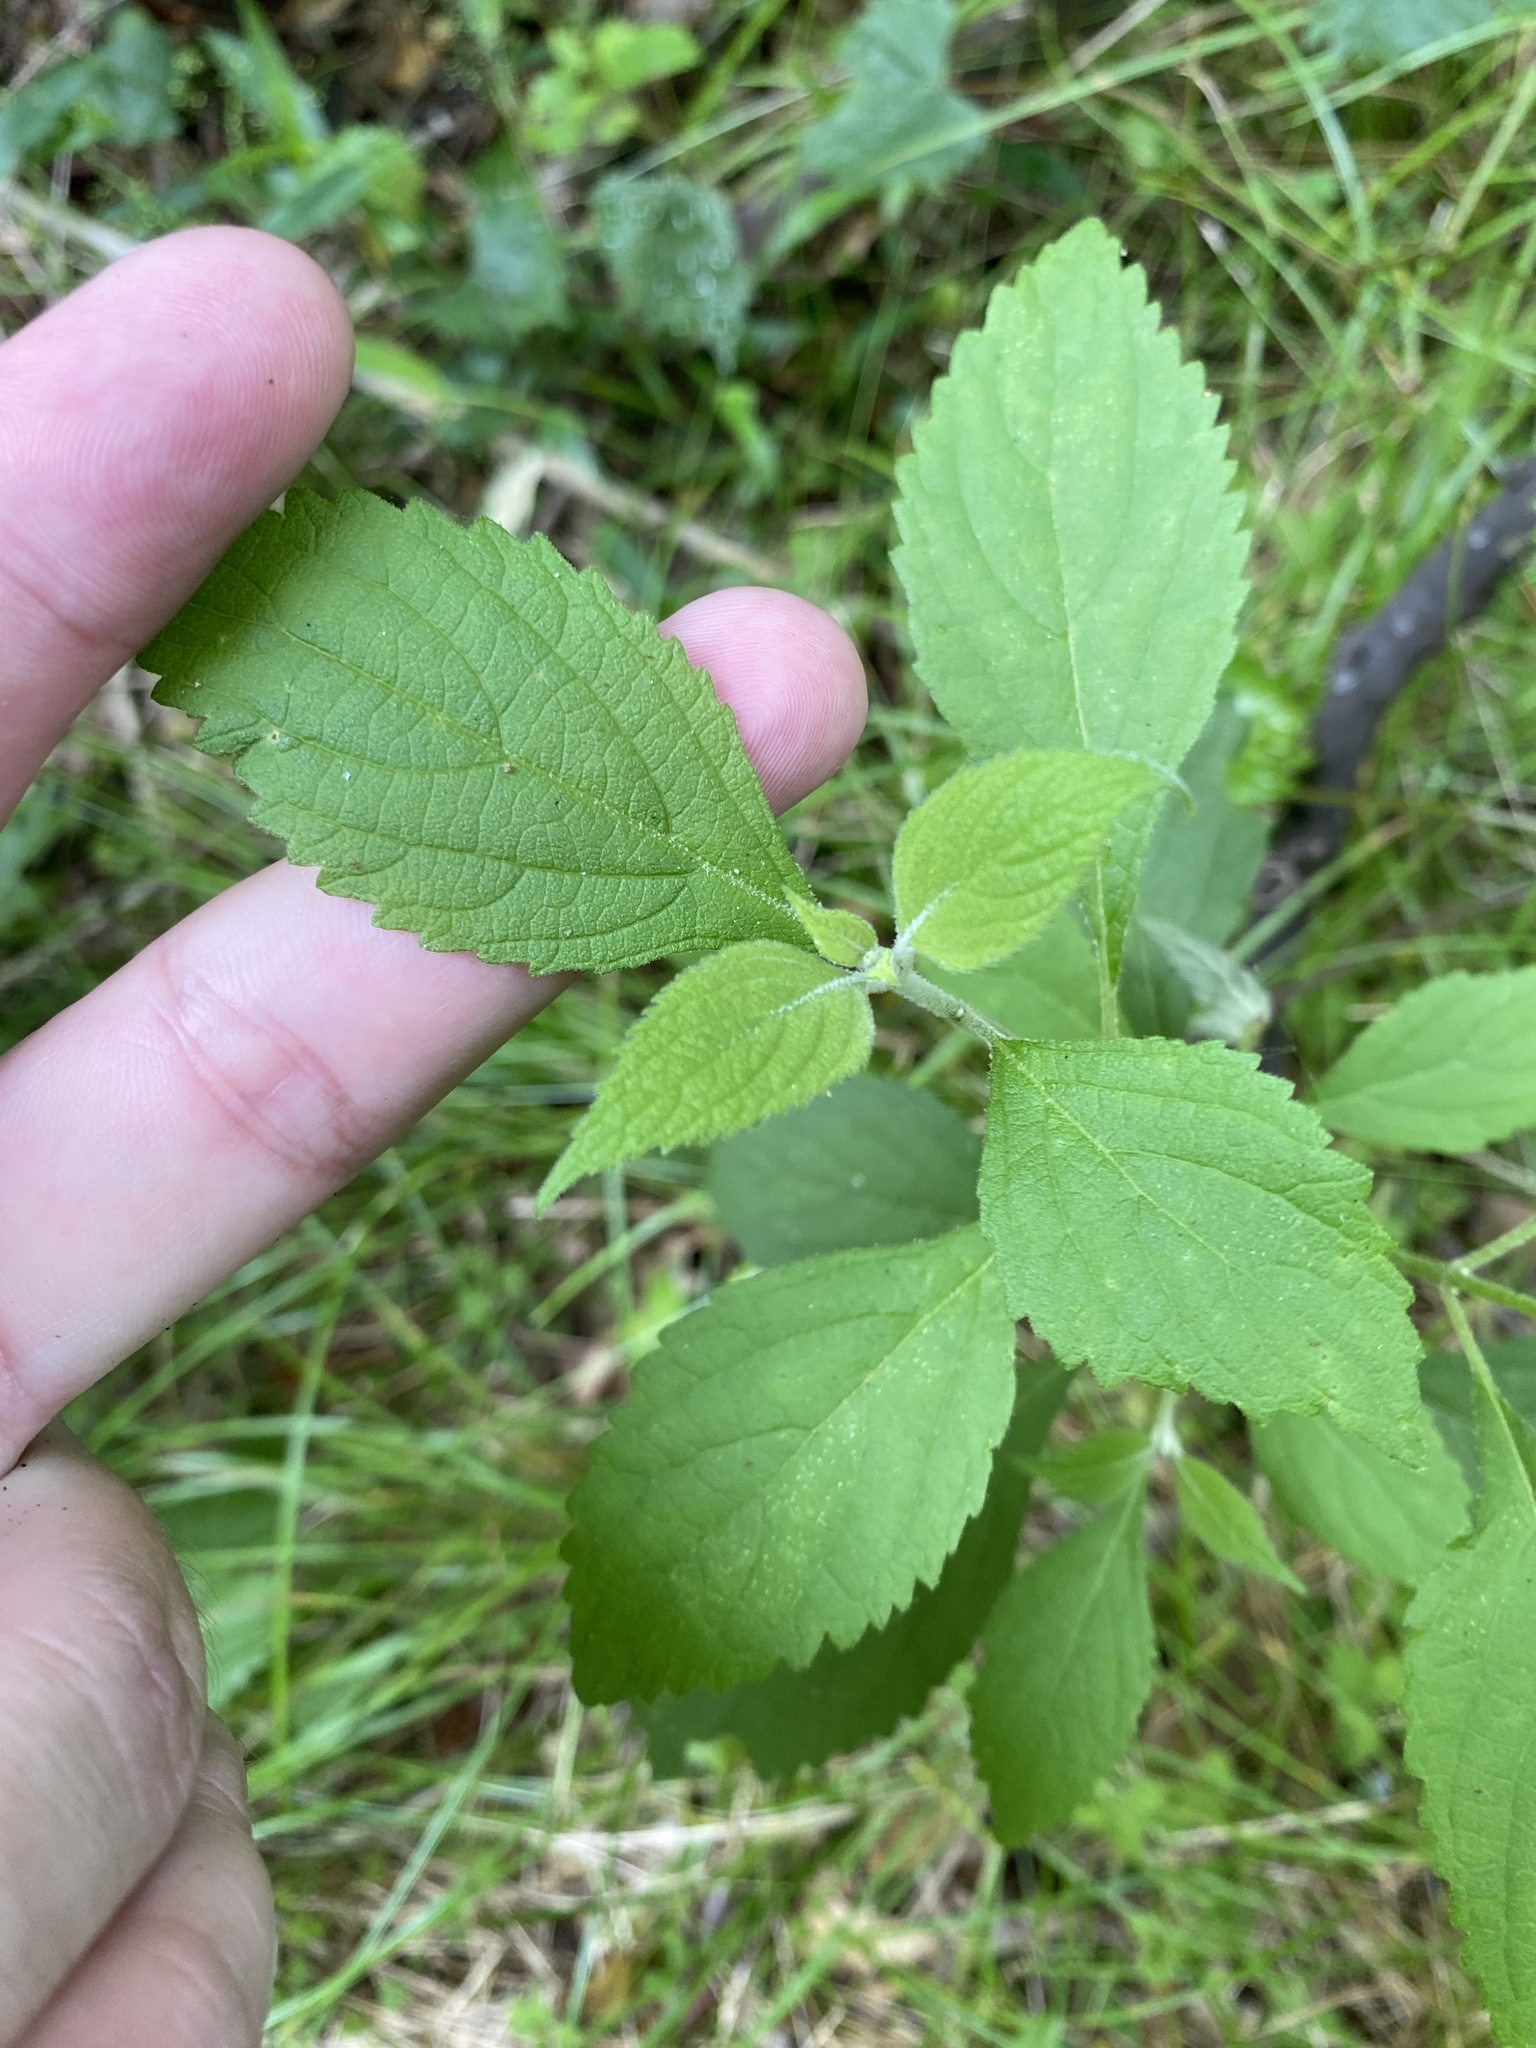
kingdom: Plantae
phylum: Tracheophyta
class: Magnoliopsida
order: Lamiales
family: Lamiaceae
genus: Callicarpa
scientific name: Callicarpa americana
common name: American beautyberry
